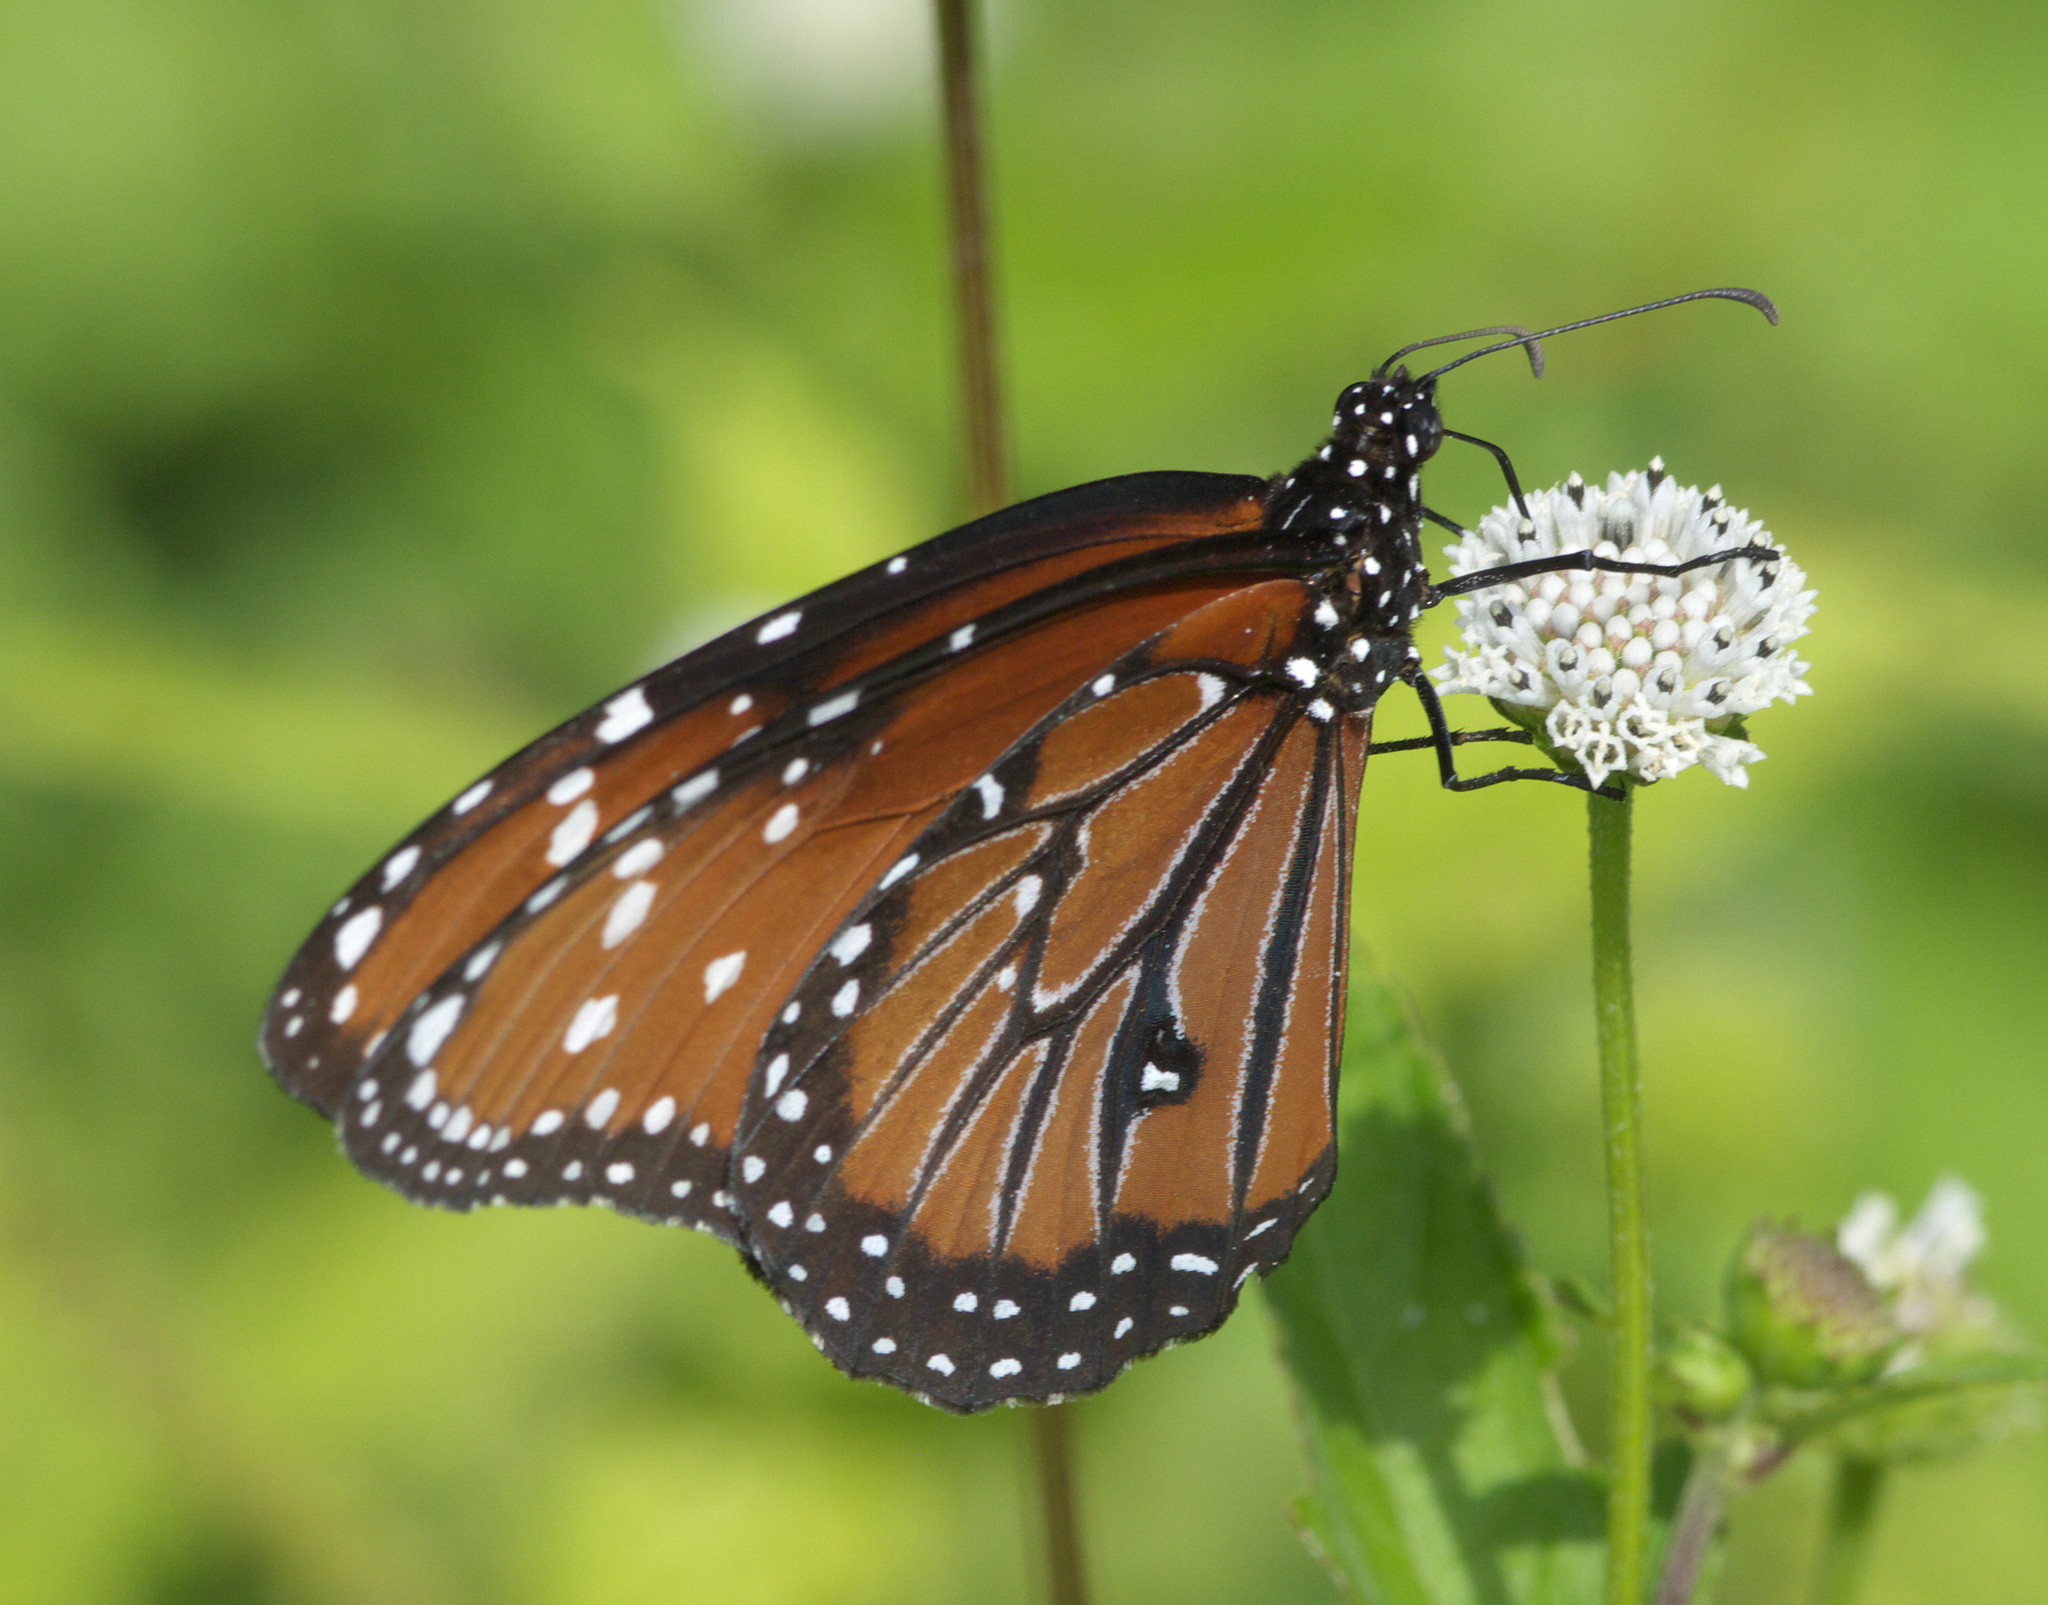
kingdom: Animalia
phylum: Arthropoda
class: Insecta
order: Lepidoptera
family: Nymphalidae
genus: Danaus
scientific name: Danaus gilippus
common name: Queen
